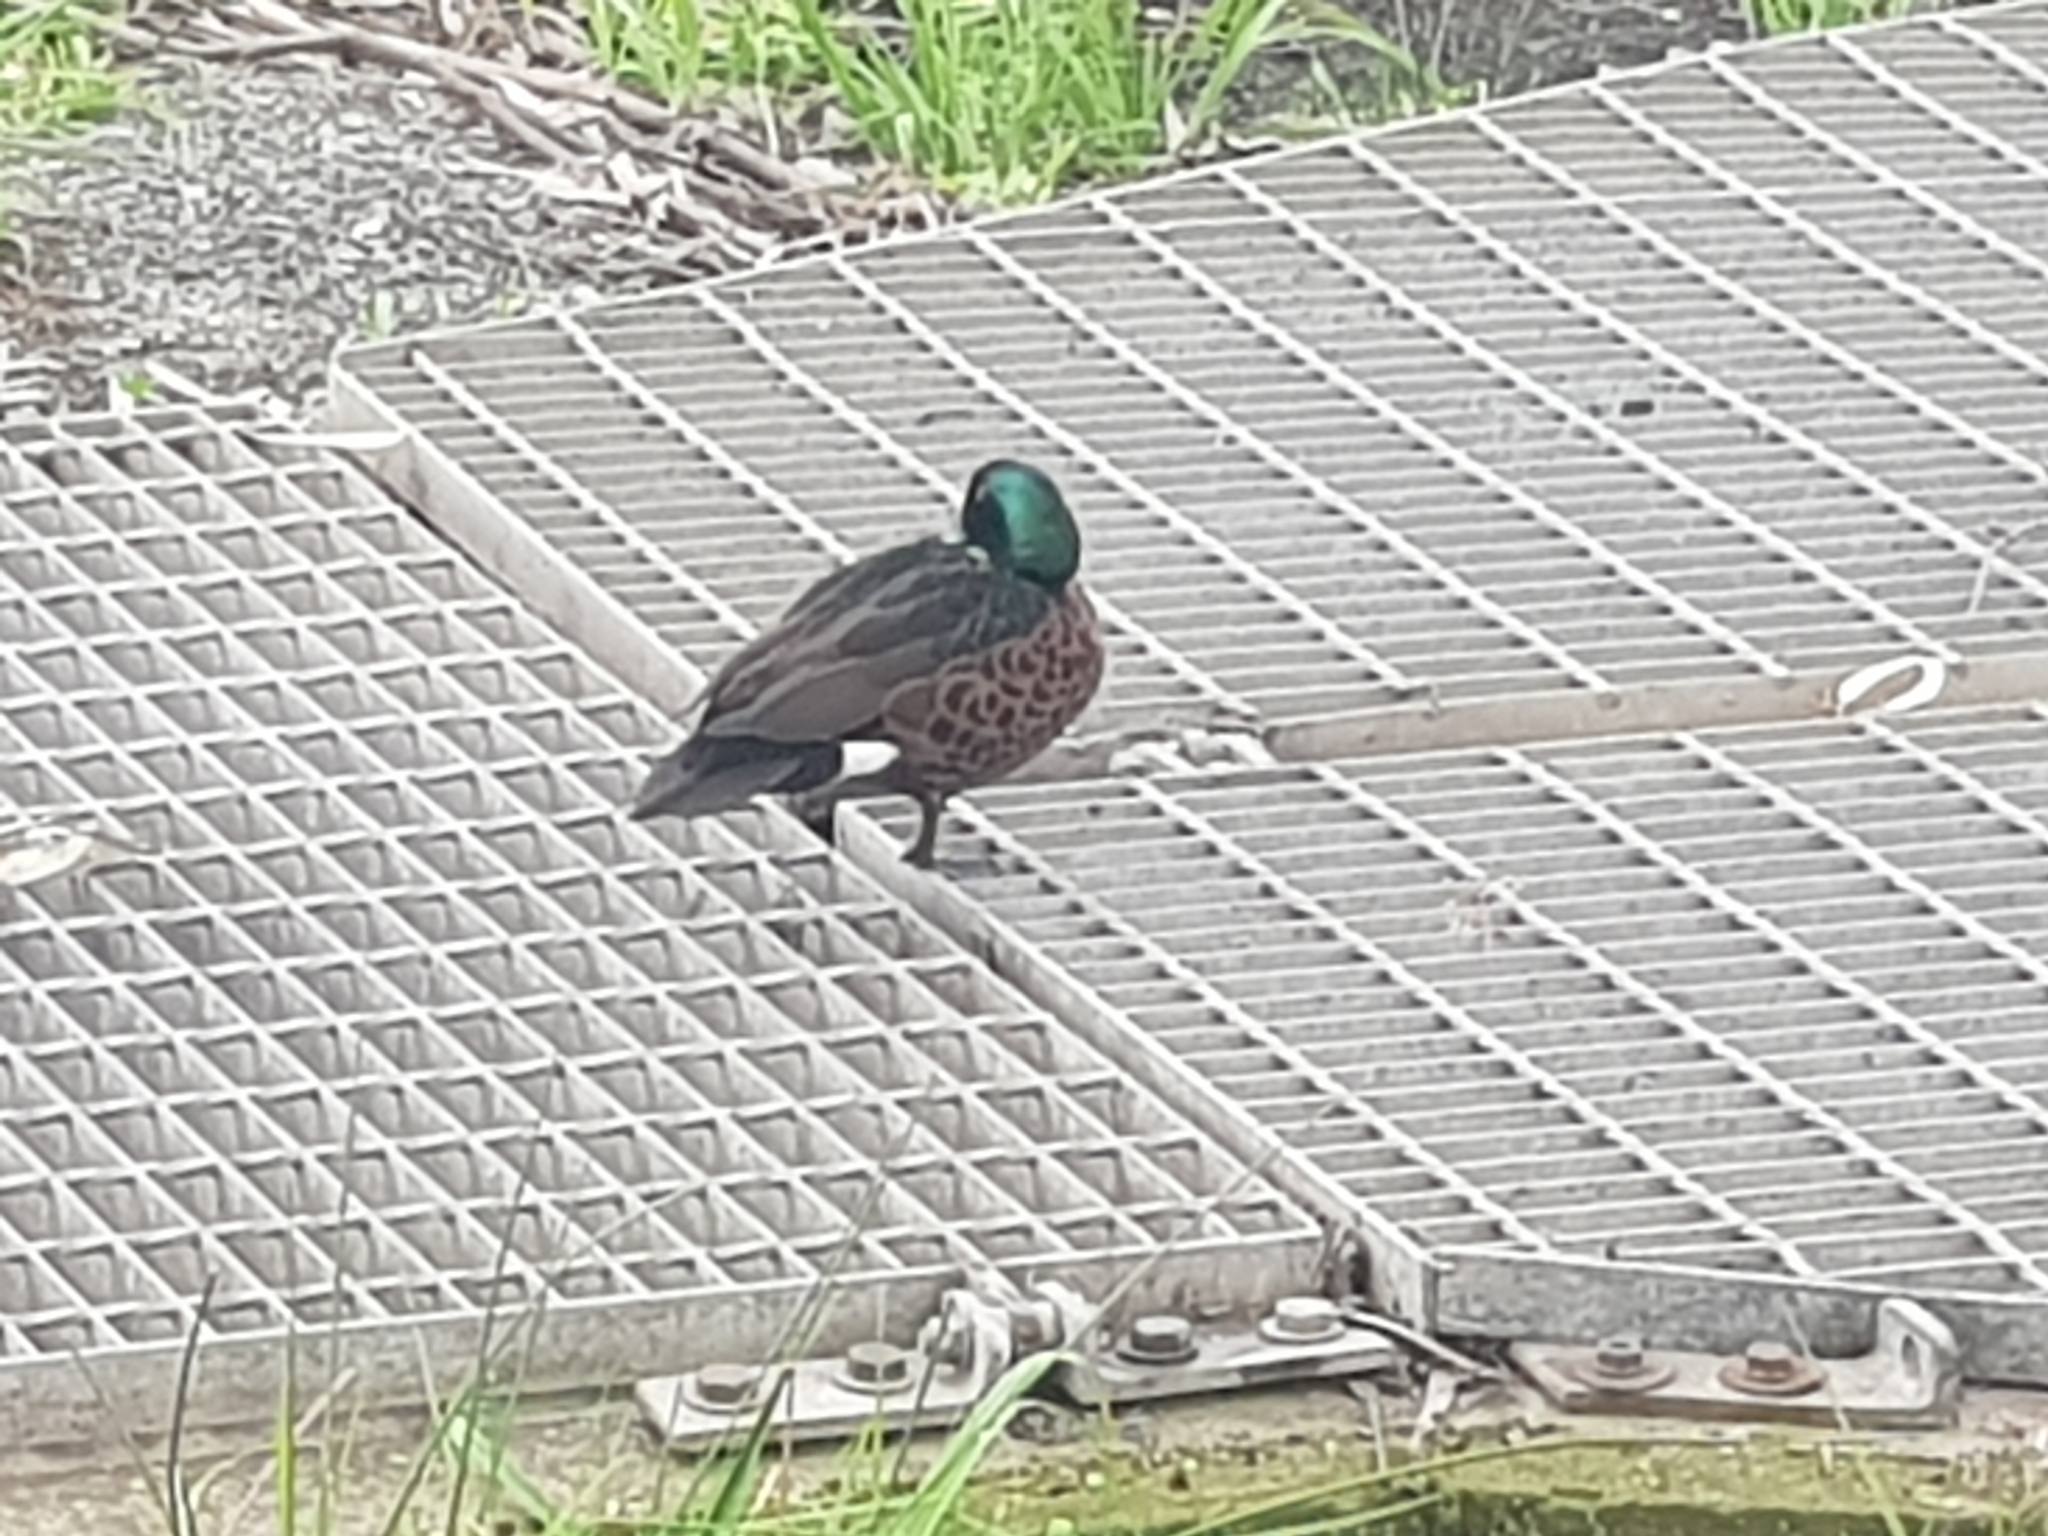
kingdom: Animalia
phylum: Chordata
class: Aves
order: Anseriformes
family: Anatidae
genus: Anas
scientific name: Anas castanea
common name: Chestnut teal
